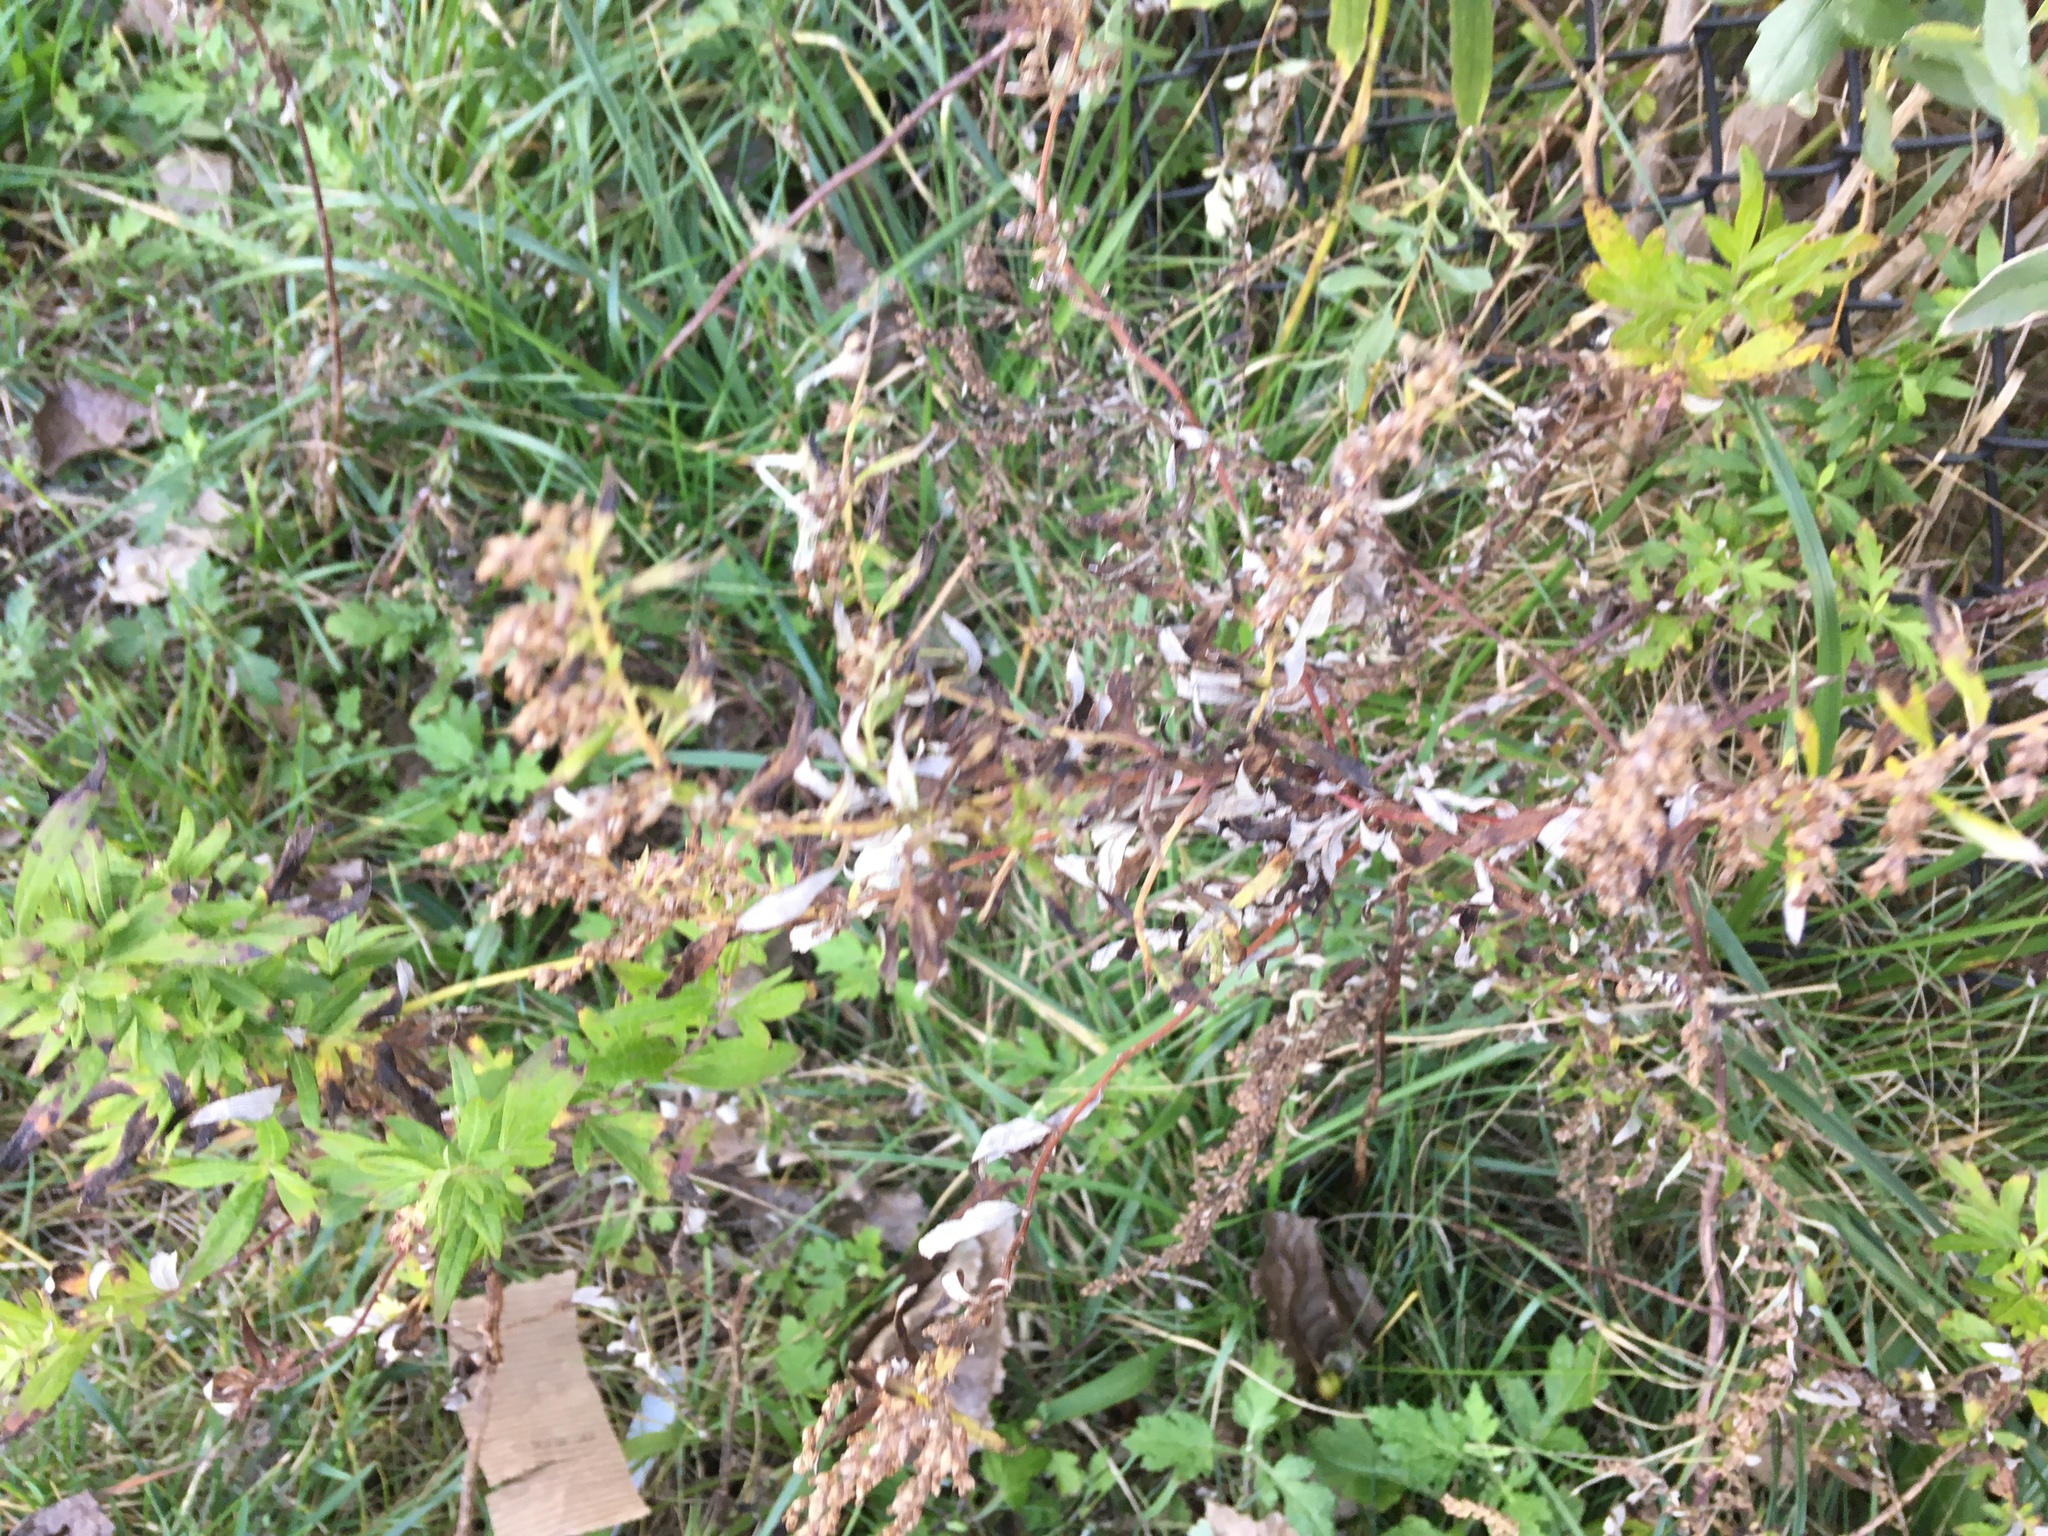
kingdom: Plantae
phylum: Tracheophyta
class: Magnoliopsida
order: Asterales
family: Asteraceae
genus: Artemisia
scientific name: Artemisia vulgaris
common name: Mugwort
